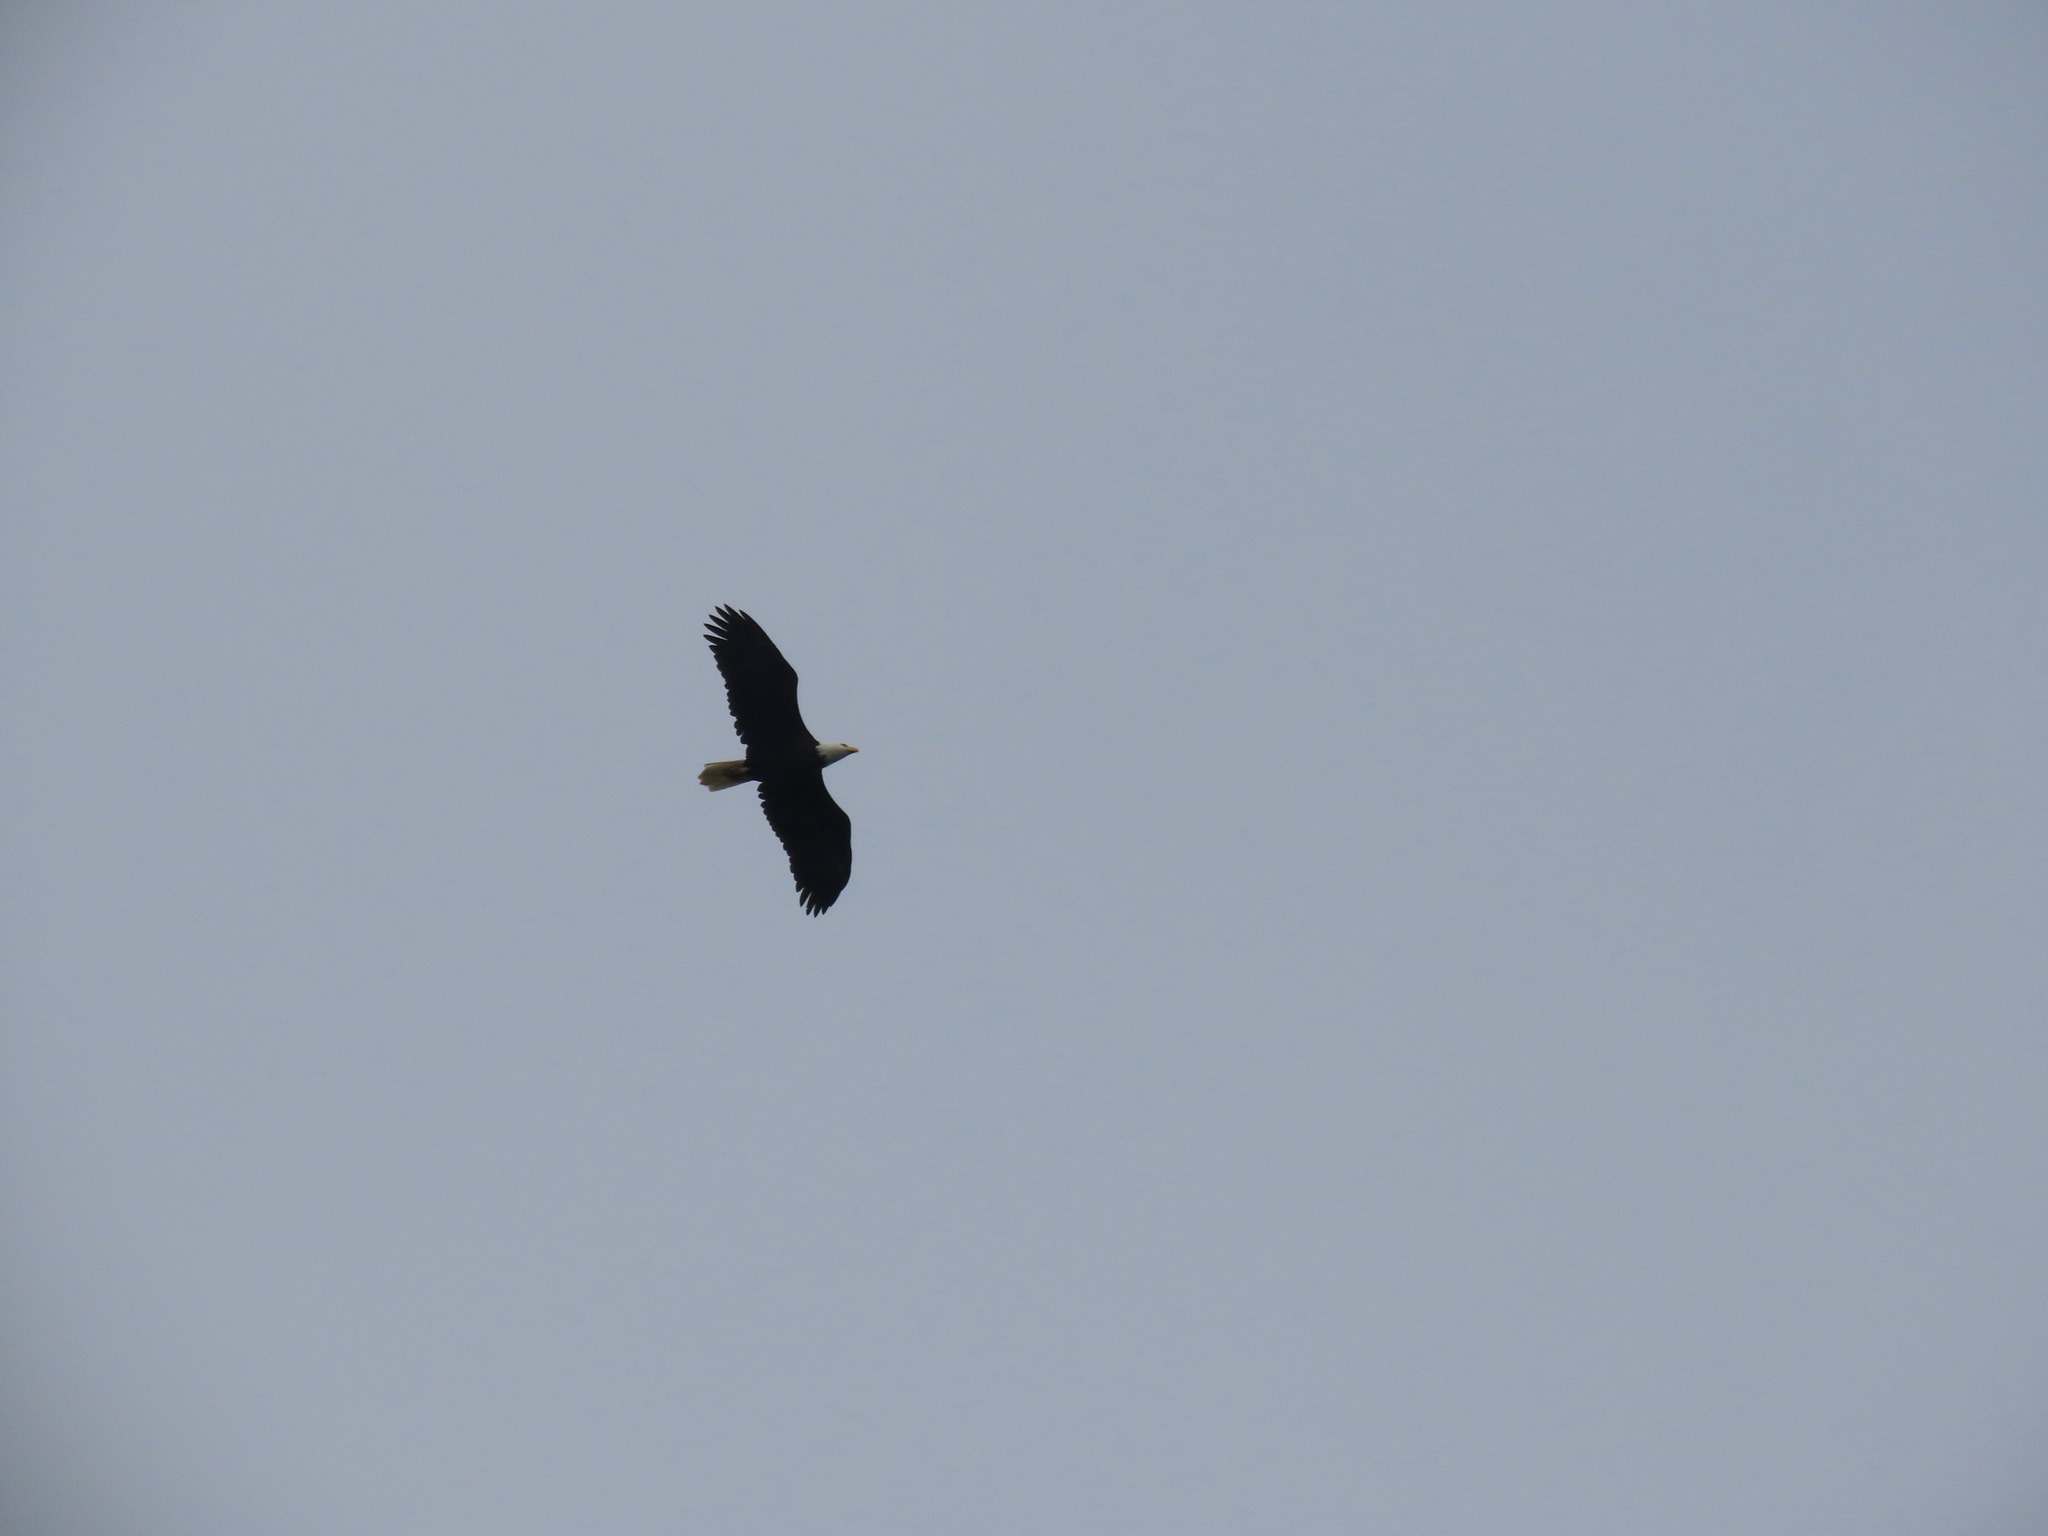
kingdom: Animalia
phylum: Chordata
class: Aves
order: Accipitriformes
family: Accipitridae
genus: Haliaeetus
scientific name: Haliaeetus leucocephalus
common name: Bald eagle
